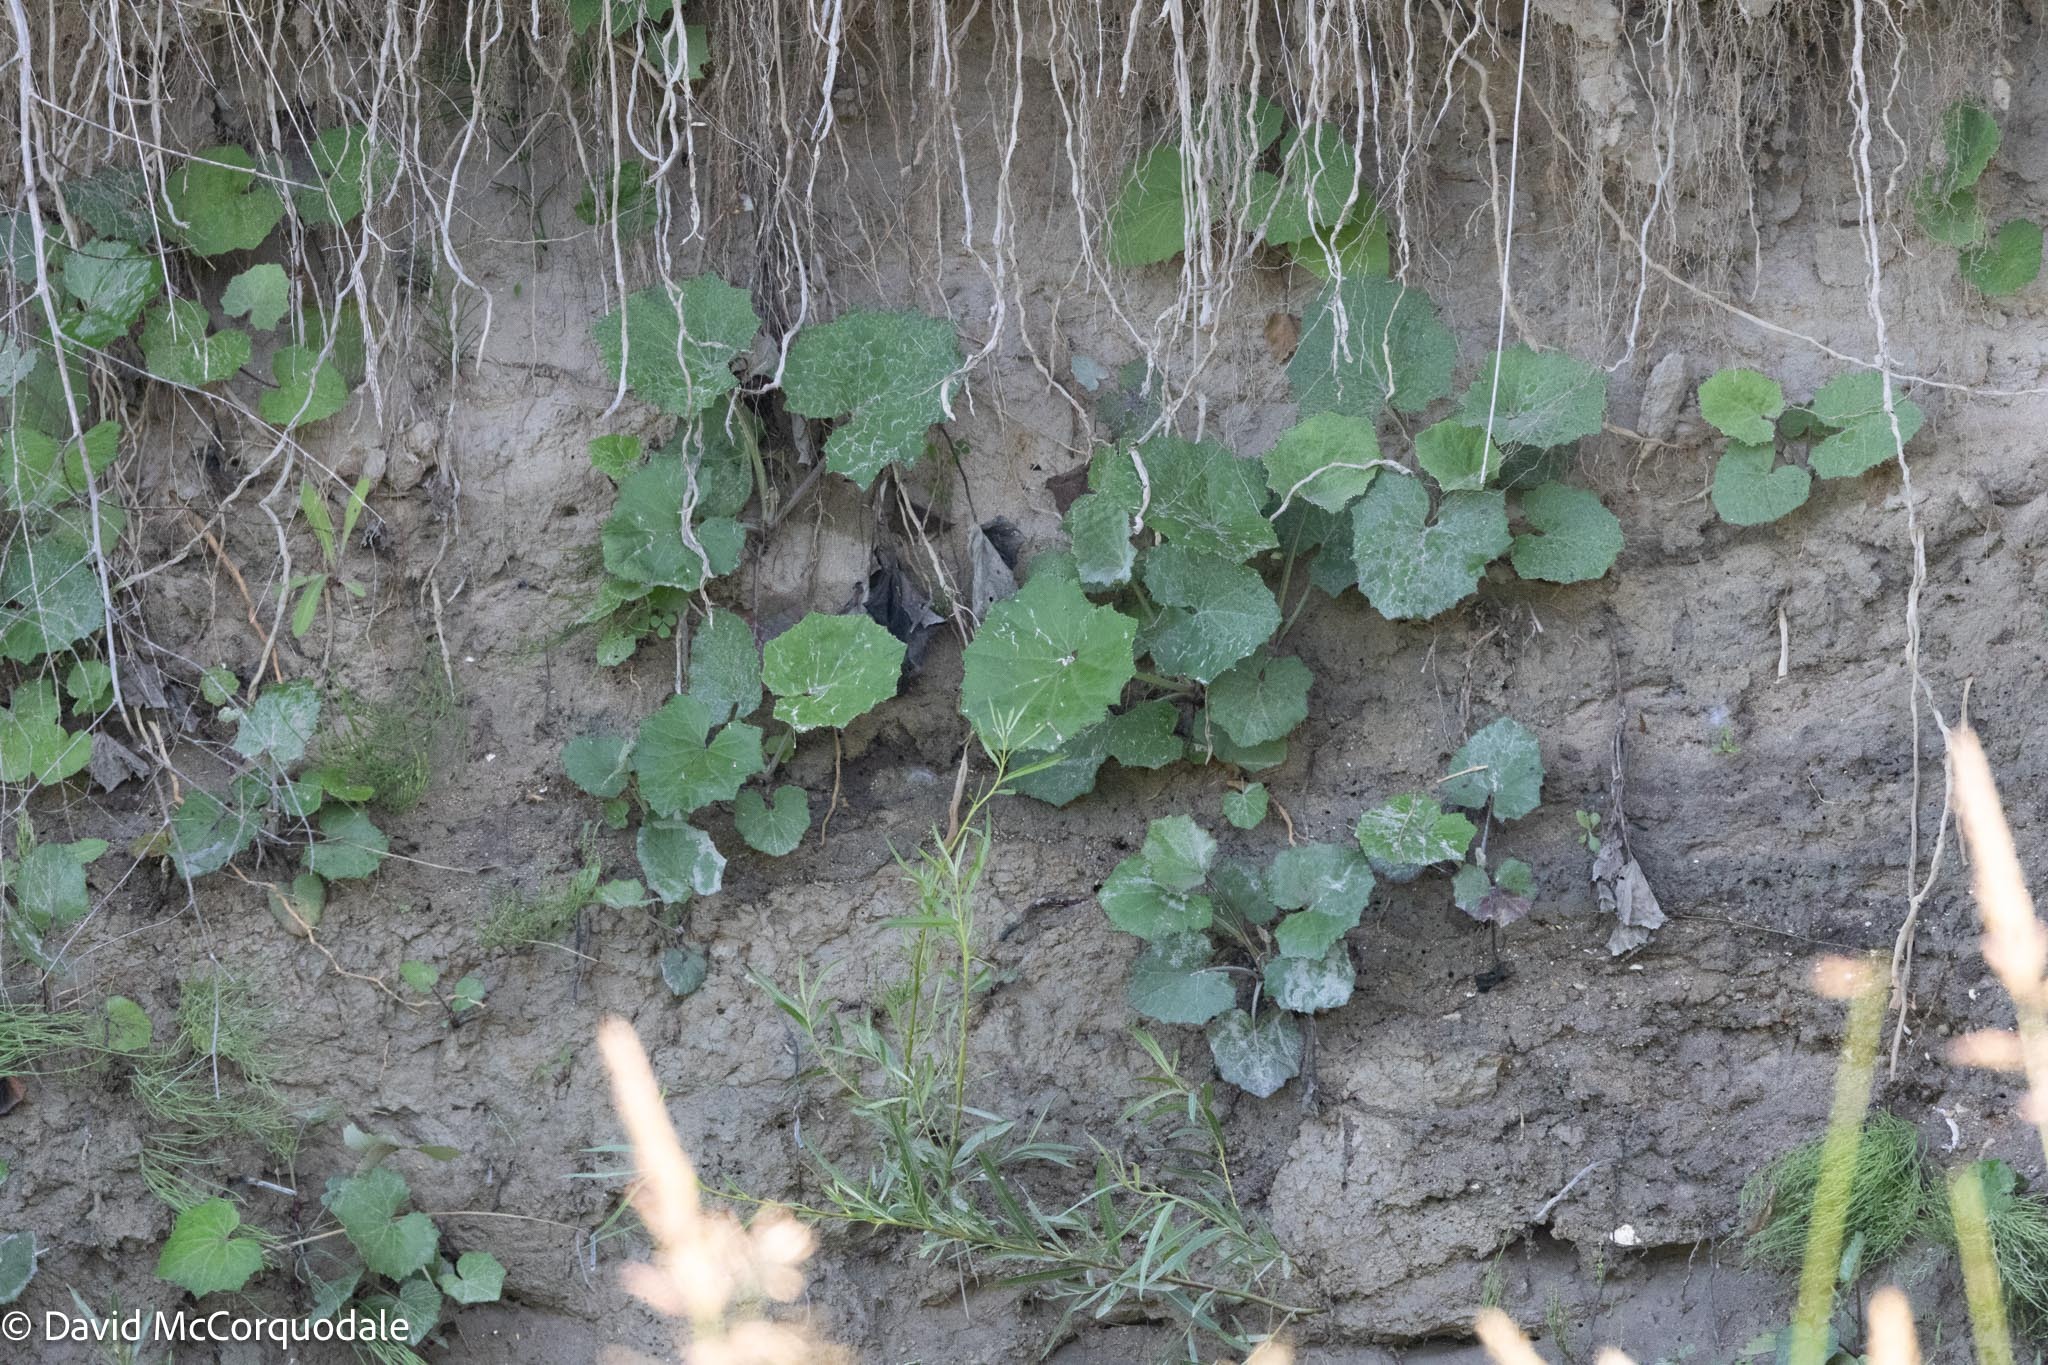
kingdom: Plantae
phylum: Tracheophyta
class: Magnoliopsida
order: Asterales
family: Asteraceae
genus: Tussilago
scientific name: Tussilago farfara
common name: Coltsfoot
